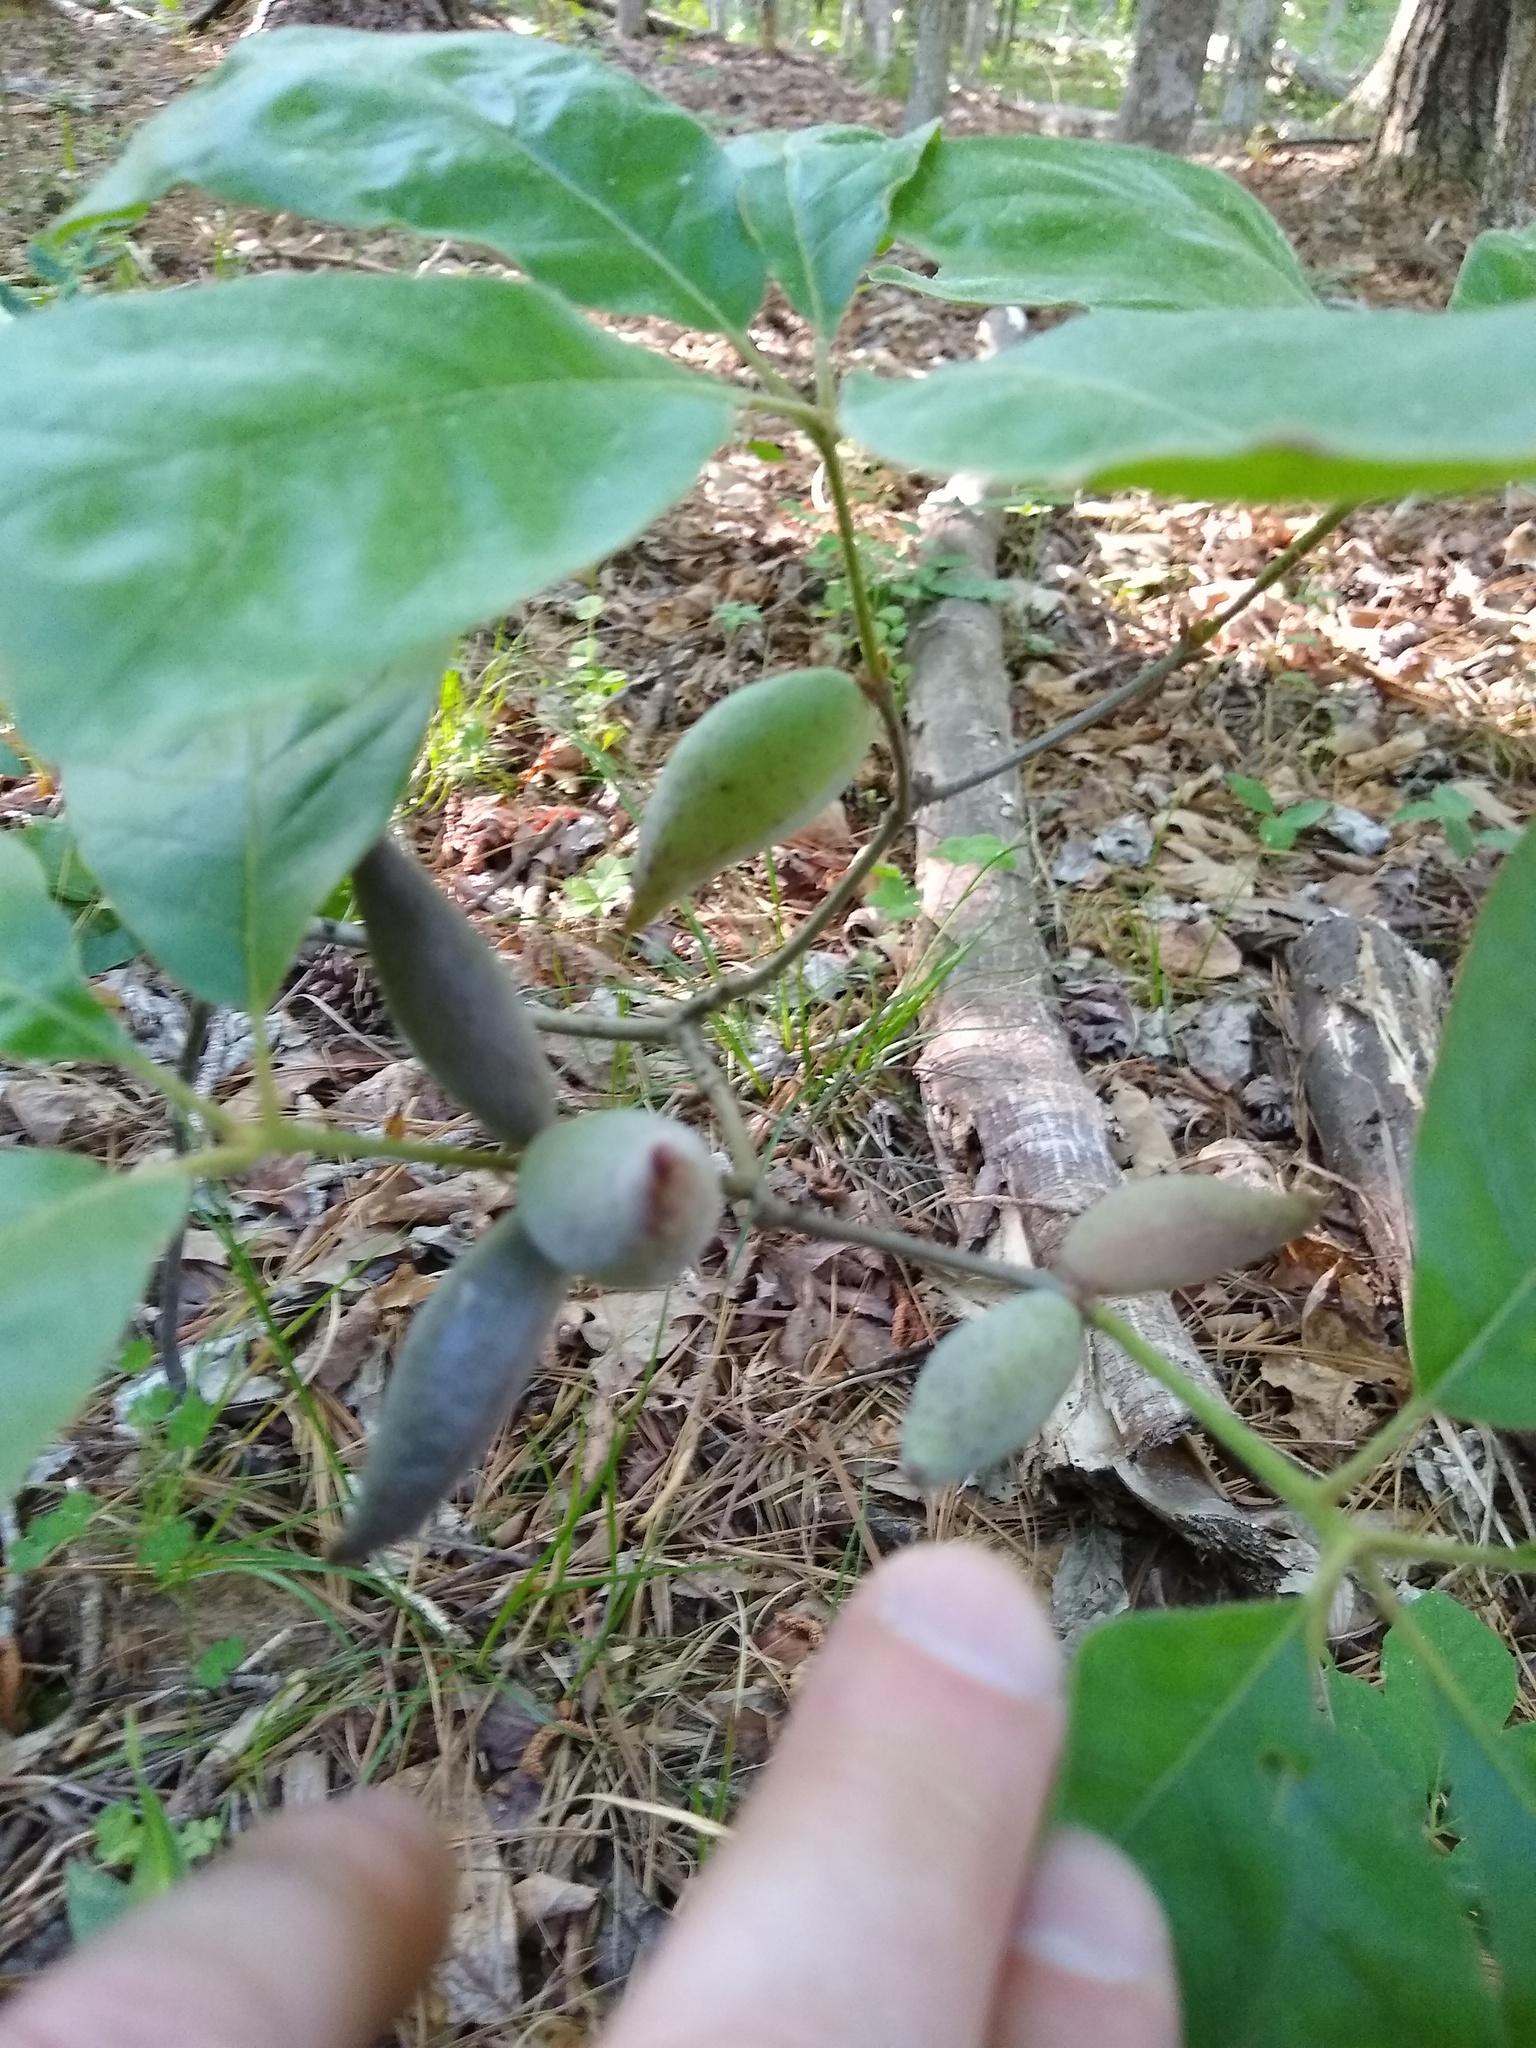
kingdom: Animalia
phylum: Arthropoda
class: Insecta
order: Hymenoptera
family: Cynipidae
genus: Amphibolips
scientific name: Amphibolips
